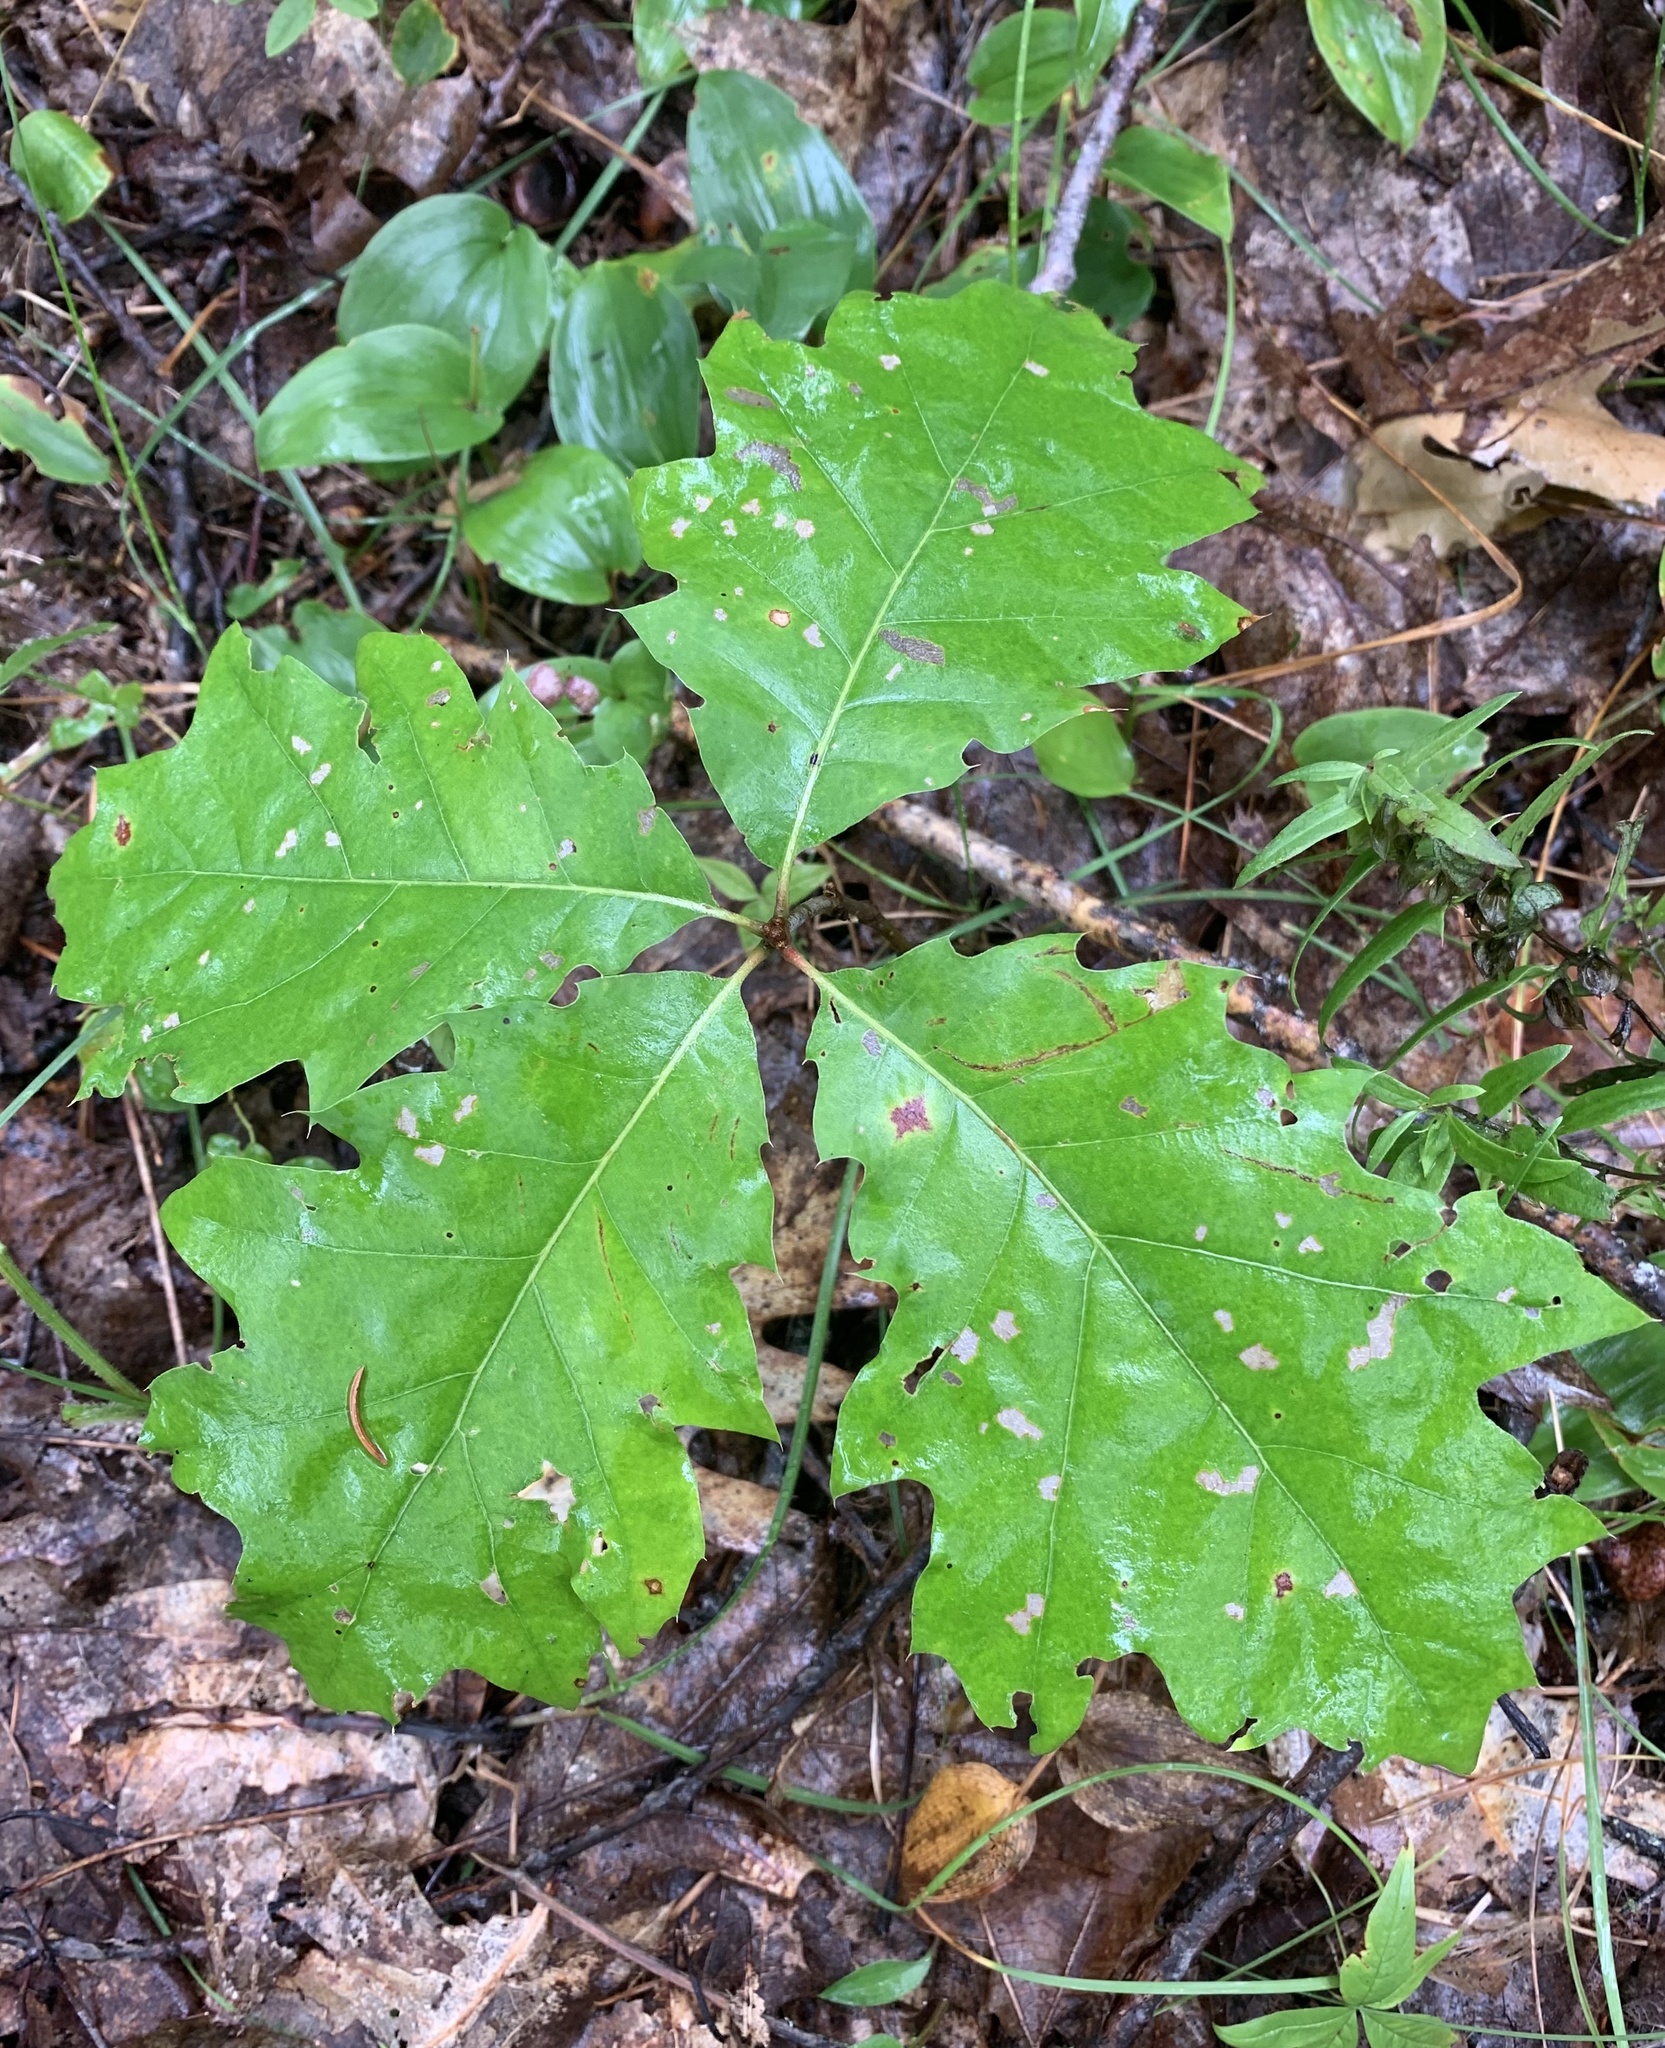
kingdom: Plantae
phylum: Tracheophyta
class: Magnoliopsida
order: Fagales
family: Fagaceae
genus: Quercus
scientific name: Quercus rubra
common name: Red oak
